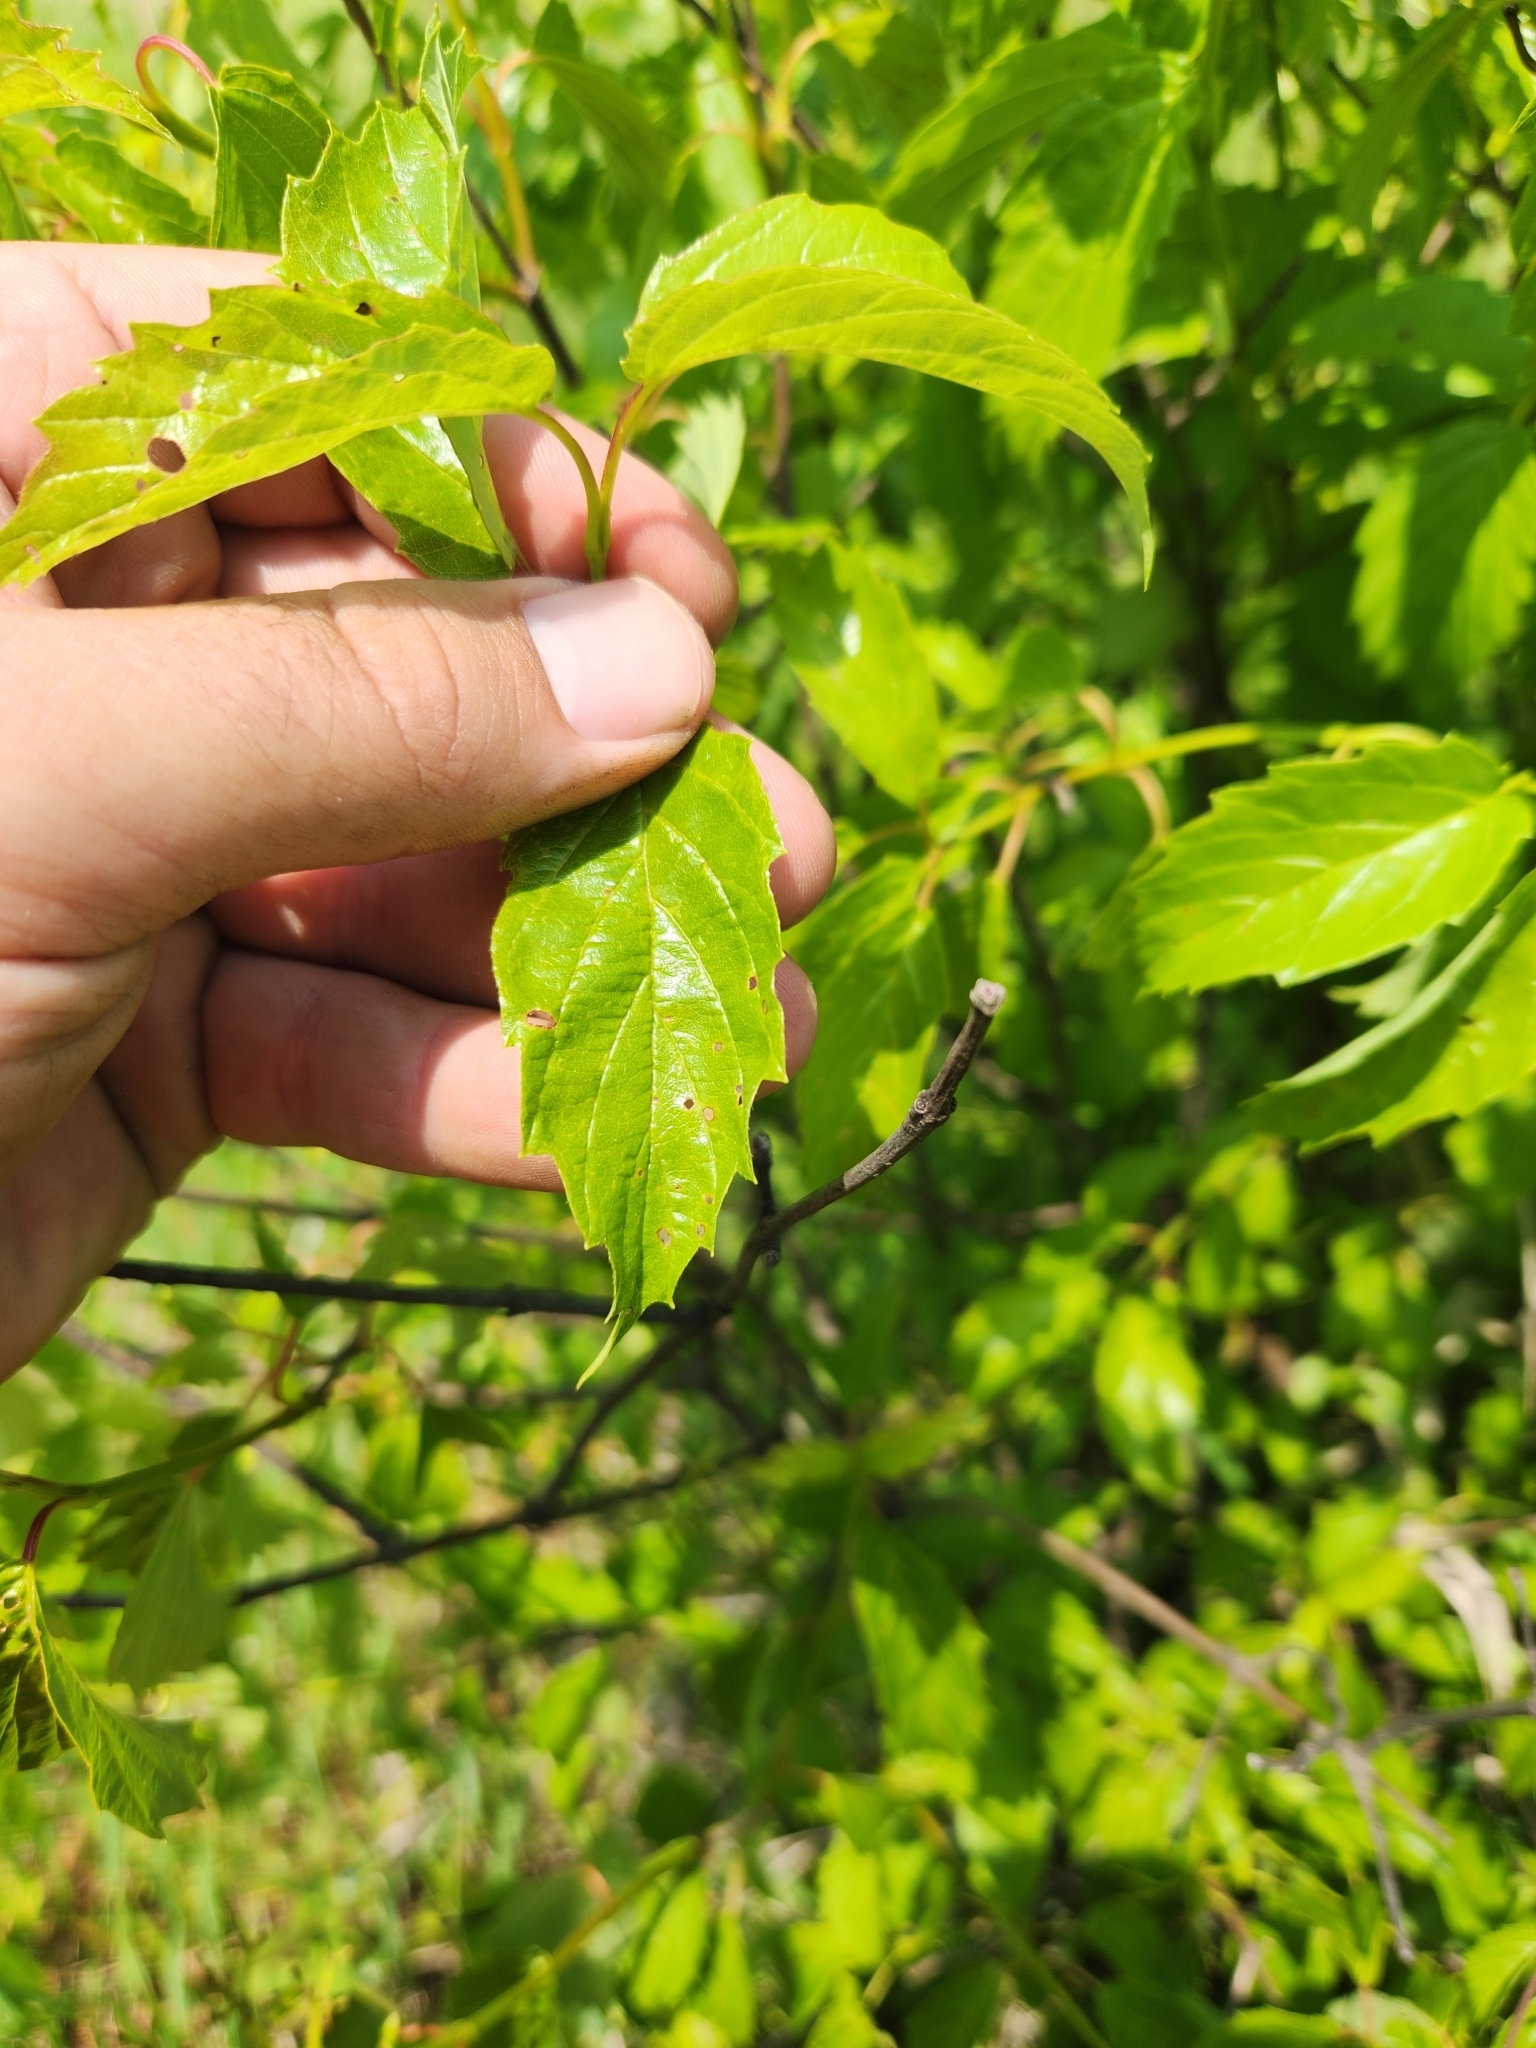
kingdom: Plantae
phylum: Tracheophyta
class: Magnoliopsida
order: Dipsacales
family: Viburnaceae
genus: Viburnum
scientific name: Viburnum recognitum
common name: Northern arrow-wood
